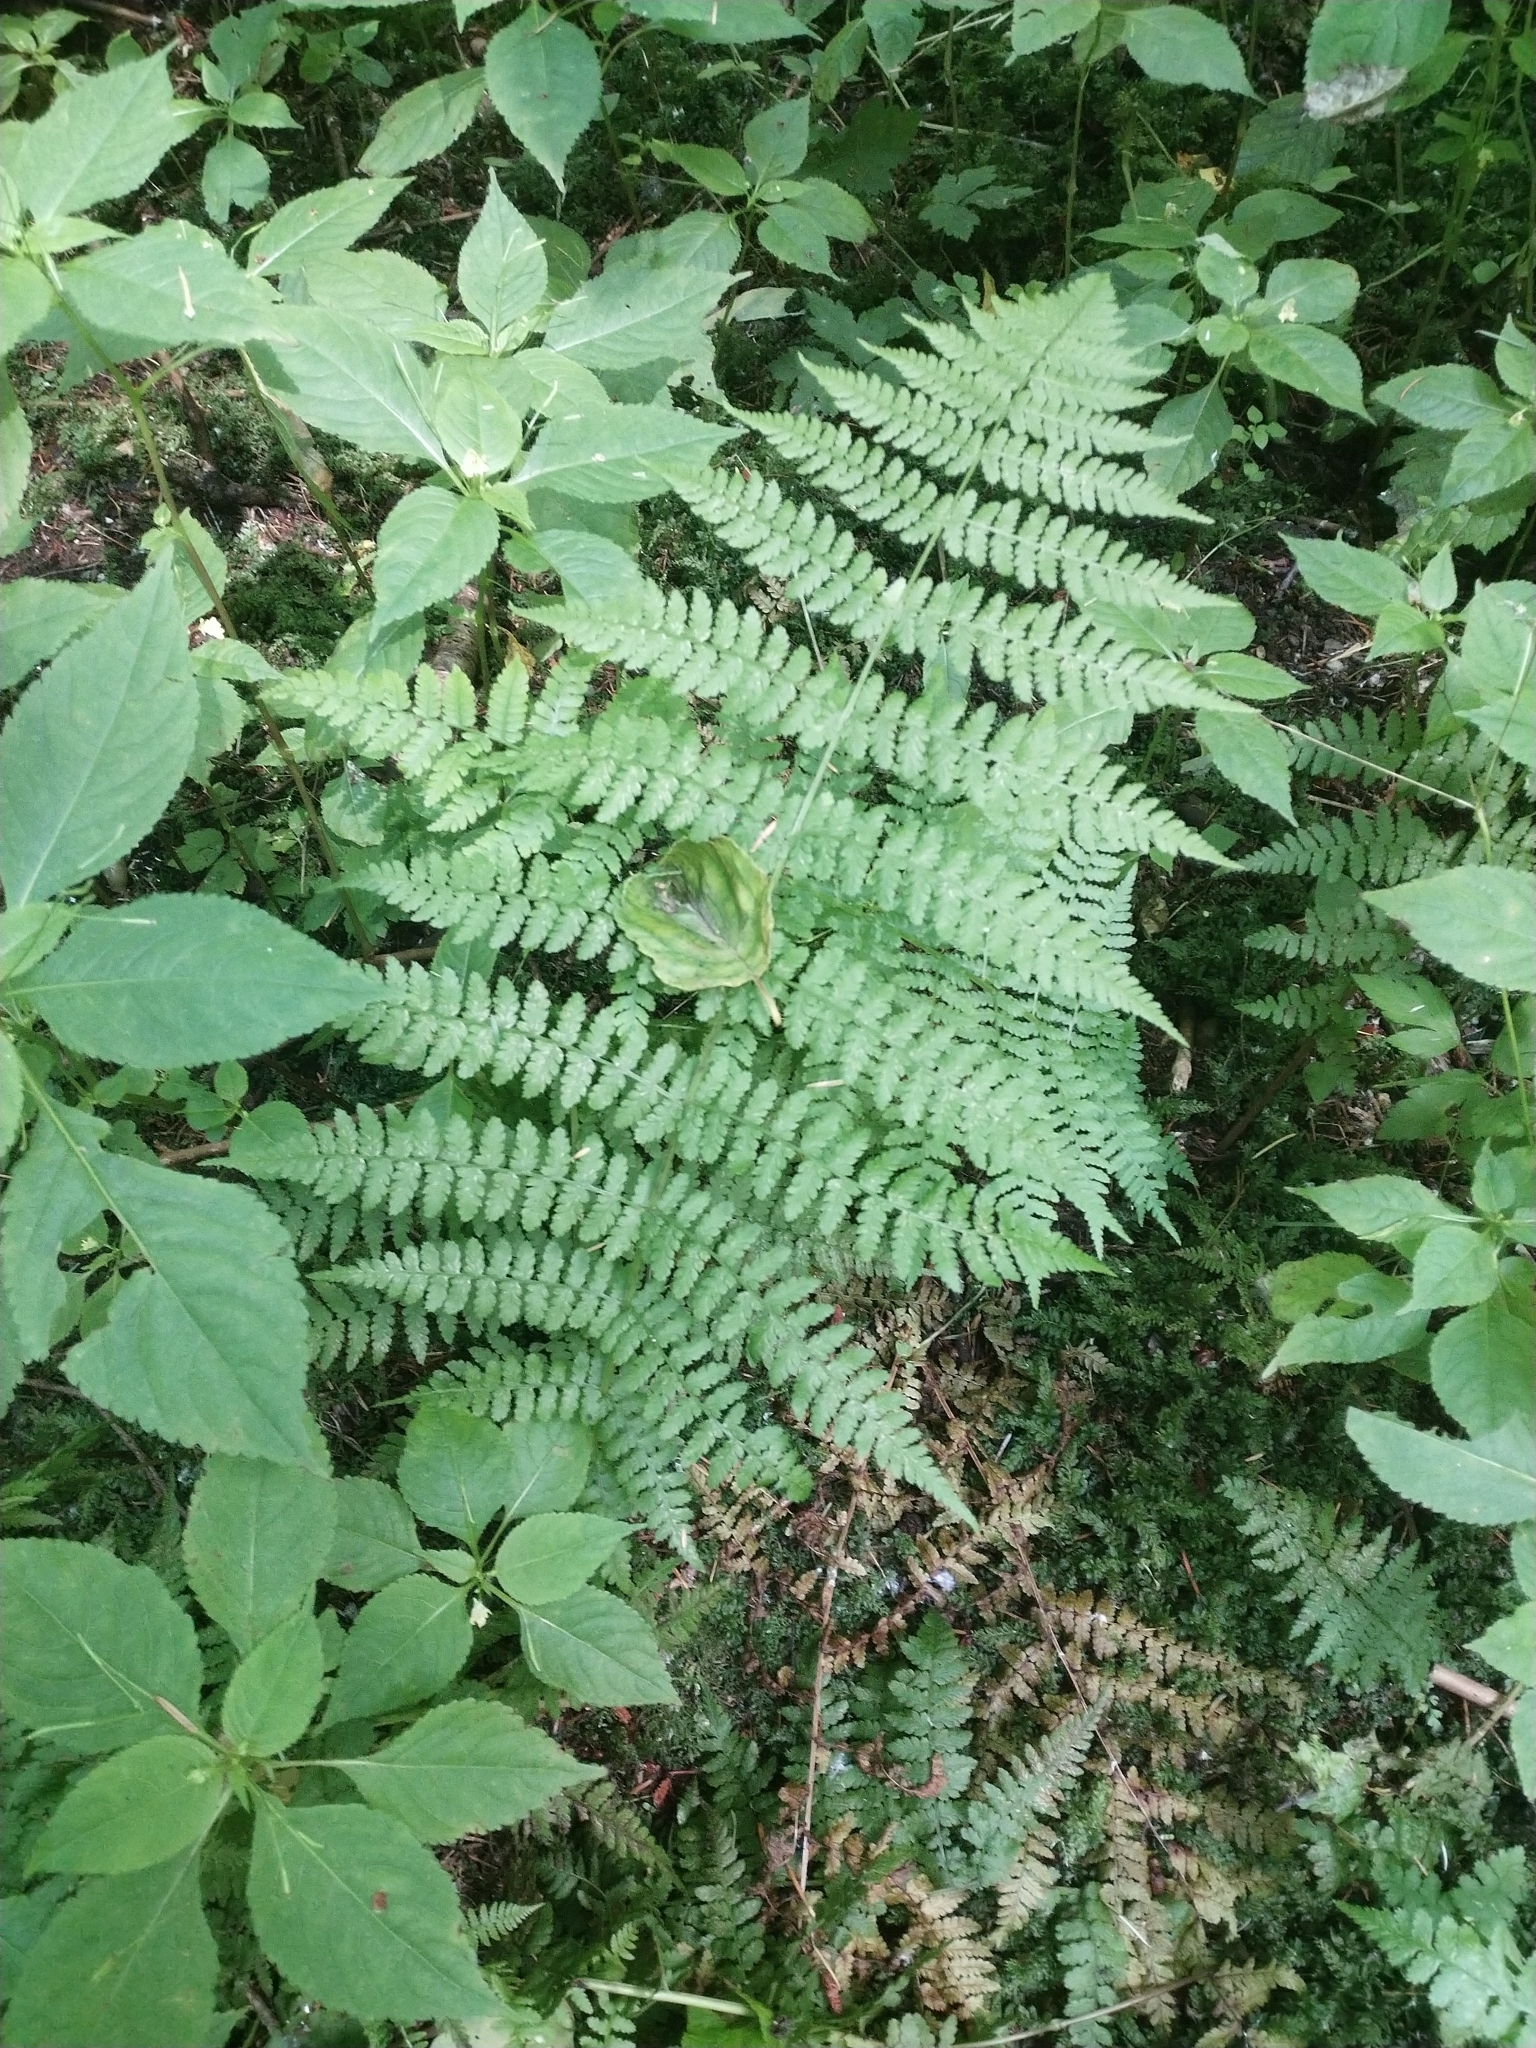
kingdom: Plantae
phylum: Tracheophyta
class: Polypodiopsida
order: Polypodiales
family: Athyriaceae
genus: Athyrium
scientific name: Athyrium filix-femina
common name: Lady fern
